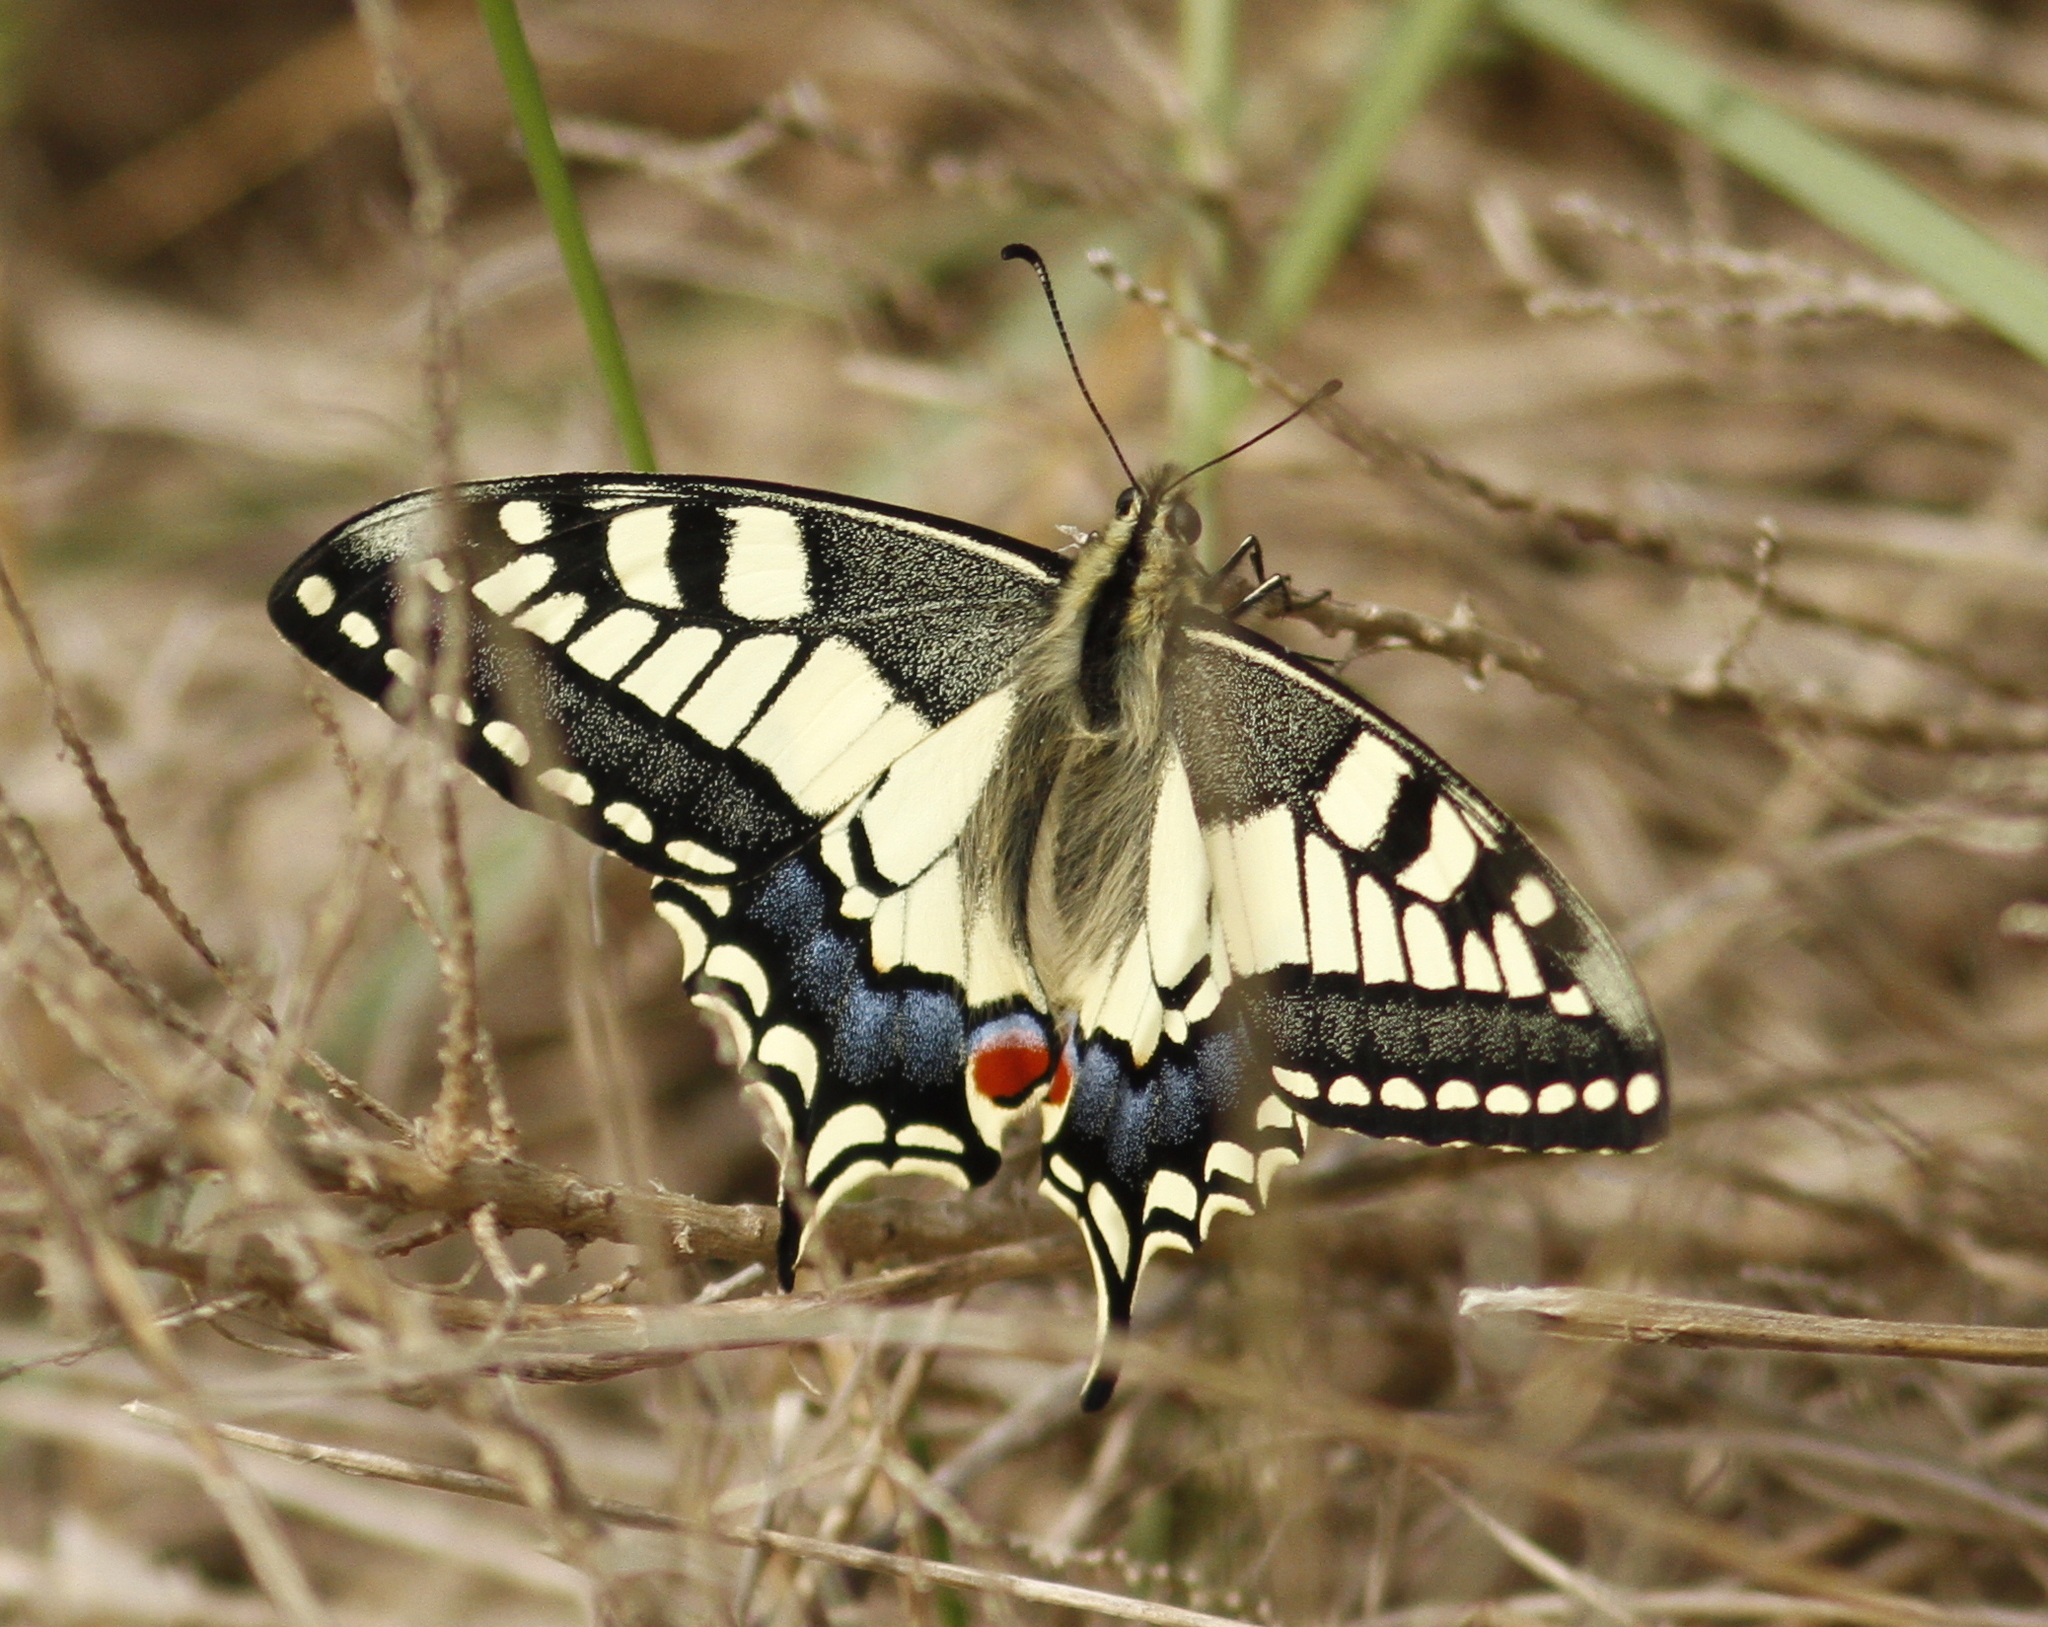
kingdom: Animalia
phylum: Arthropoda
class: Insecta
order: Lepidoptera
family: Papilionidae
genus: Papilio
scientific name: Papilio machaon
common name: Swallowtail
